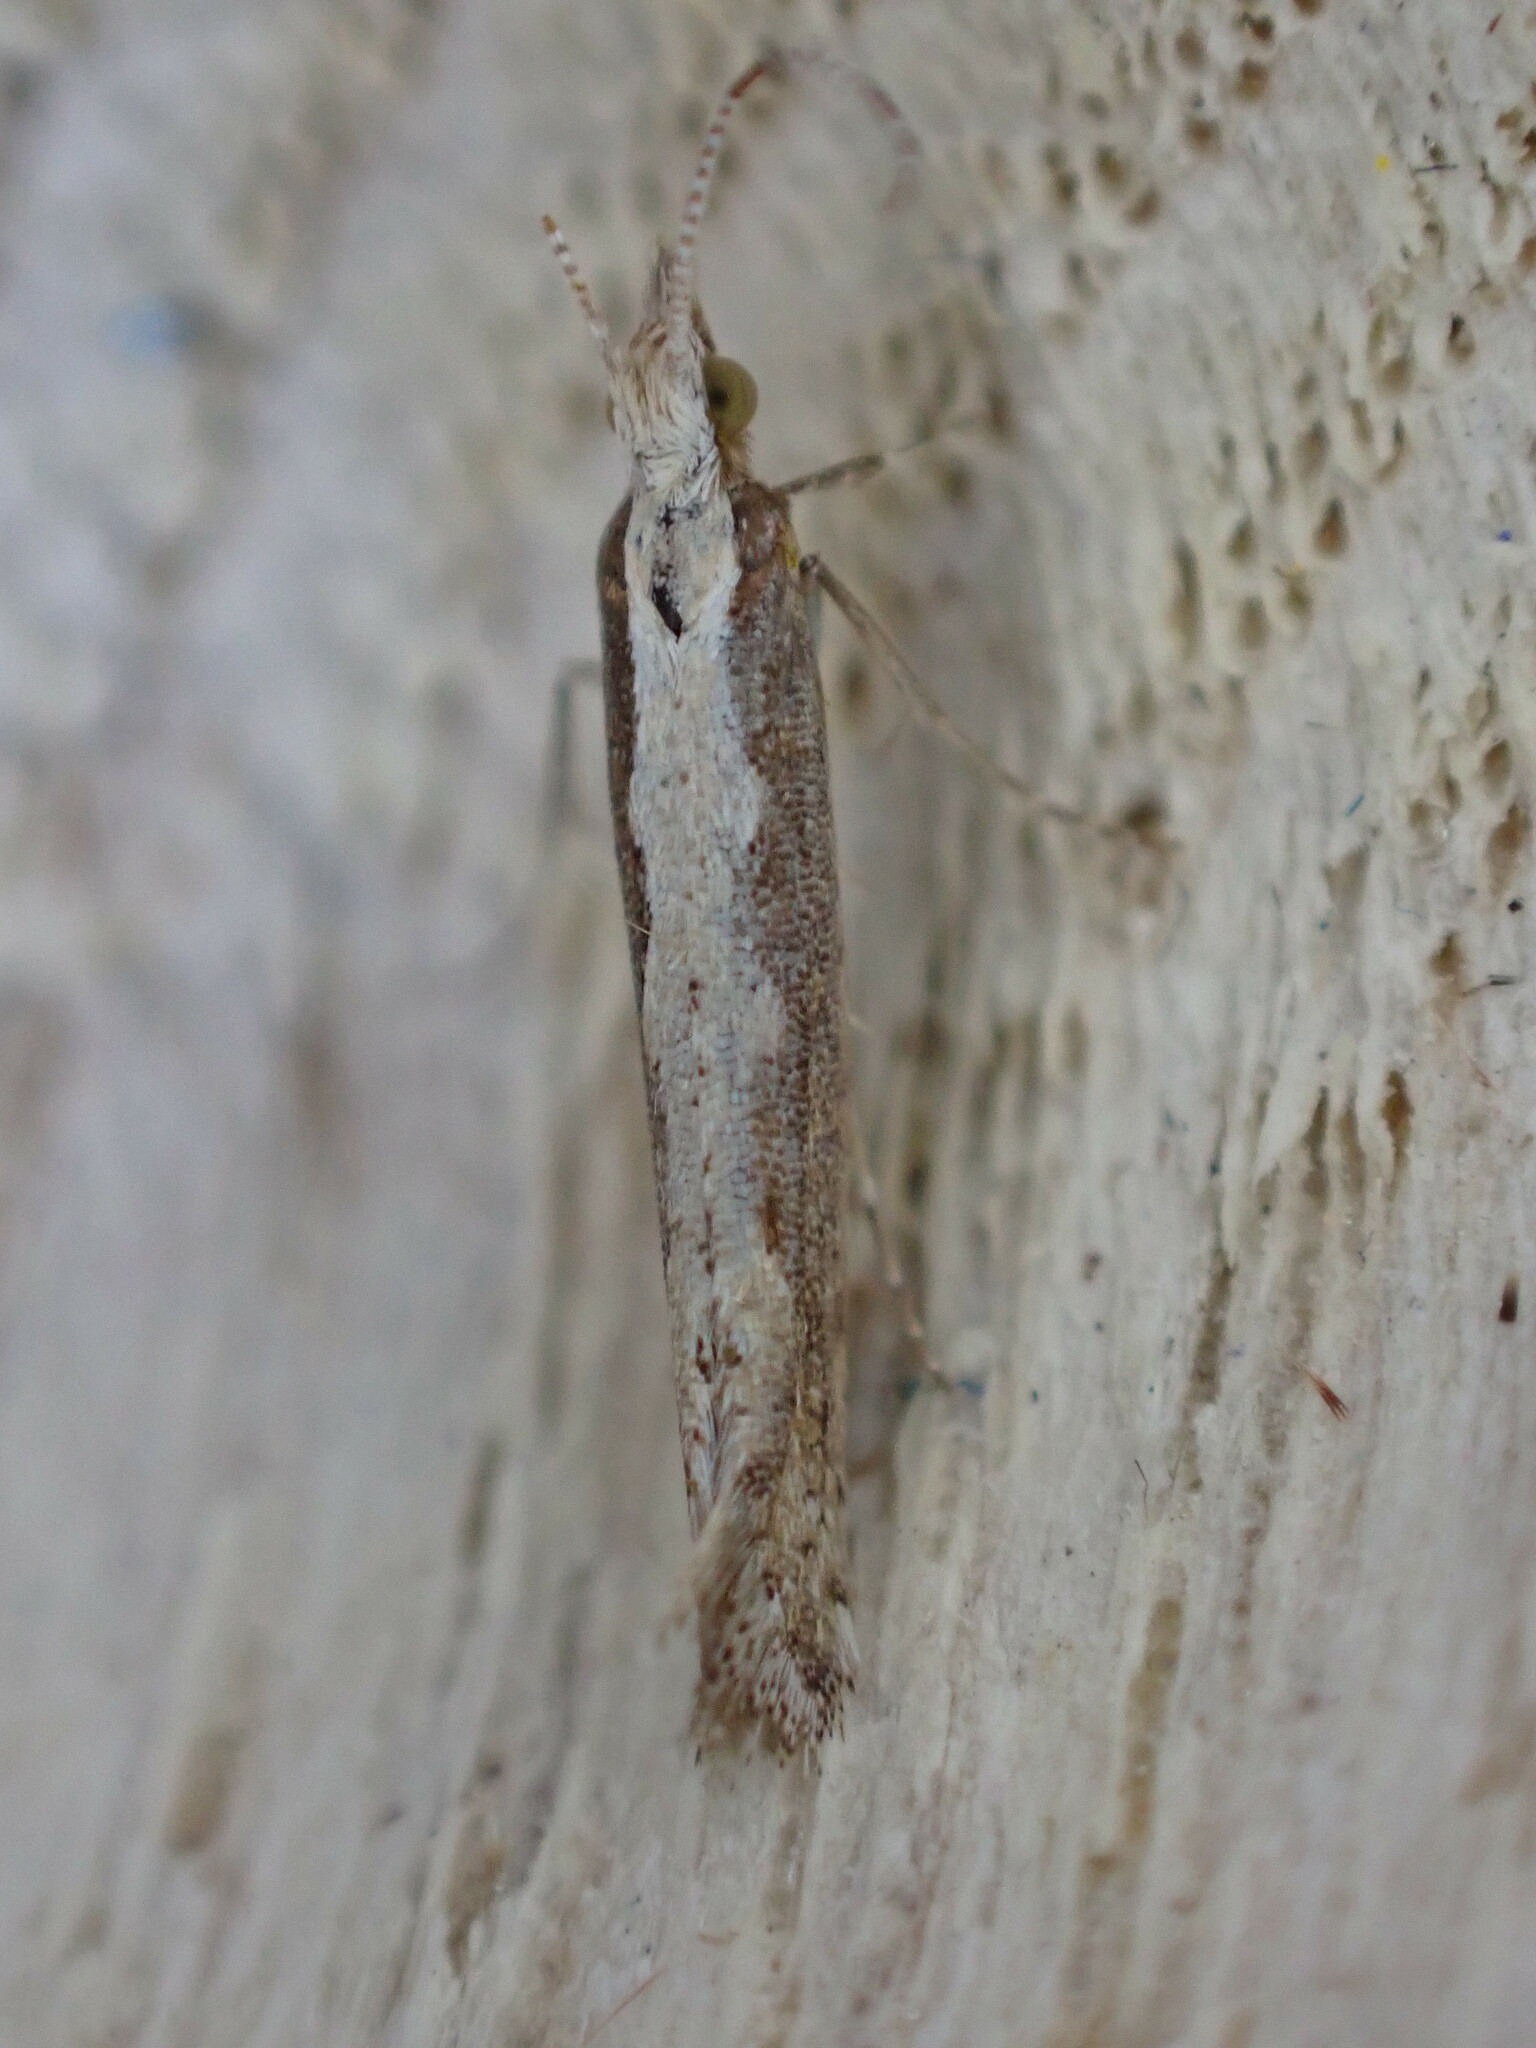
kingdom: Animalia
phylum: Arthropoda
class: Insecta
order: Lepidoptera
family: Plutellidae
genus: Plutella
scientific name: Plutella xylostella
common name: Diamond-back moth
